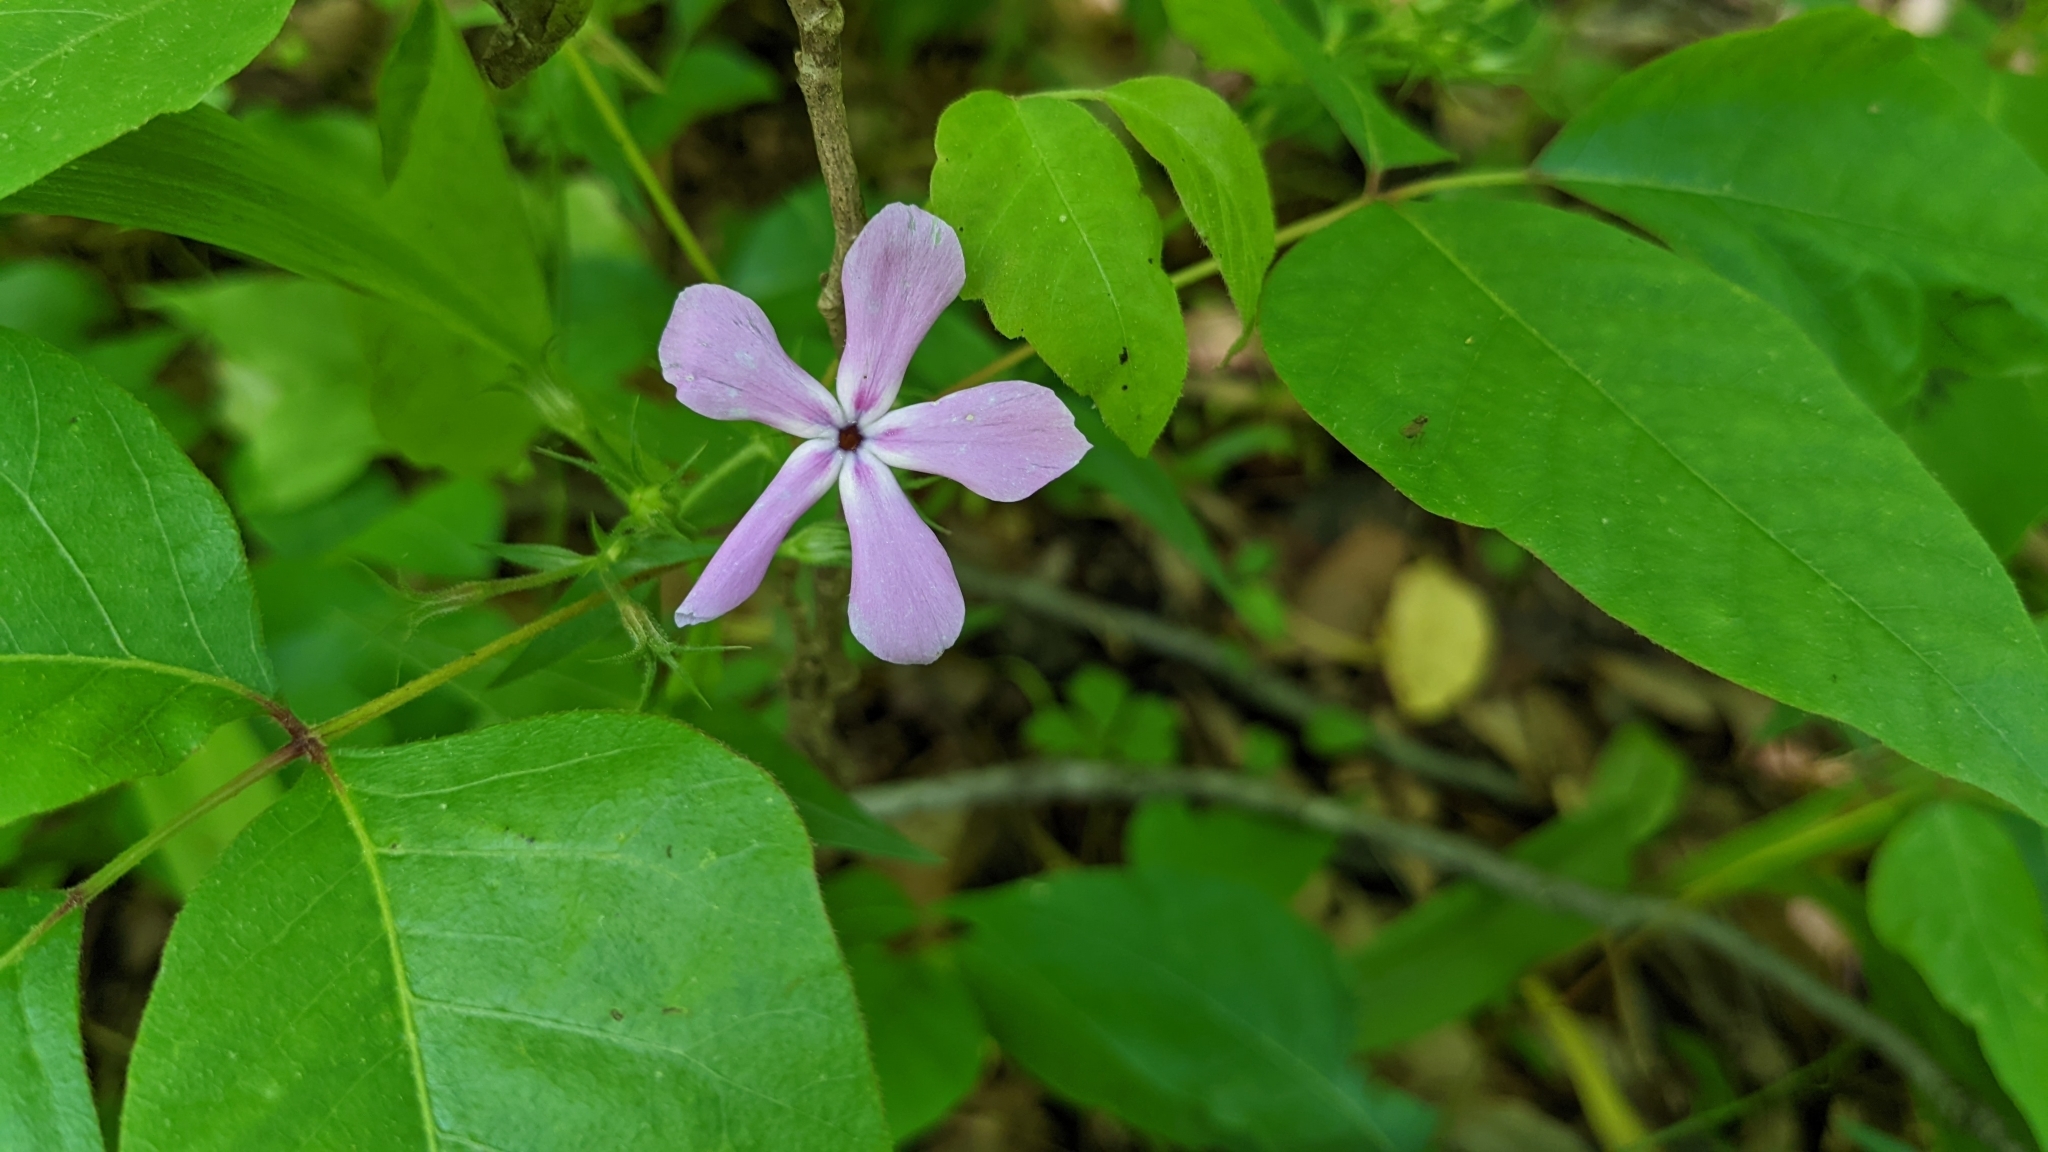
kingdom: Plantae
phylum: Tracheophyta
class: Magnoliopsida
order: Ericales
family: Polemoniaceae
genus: Phlox
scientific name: Phlox pilosa
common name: Prairie phlox
